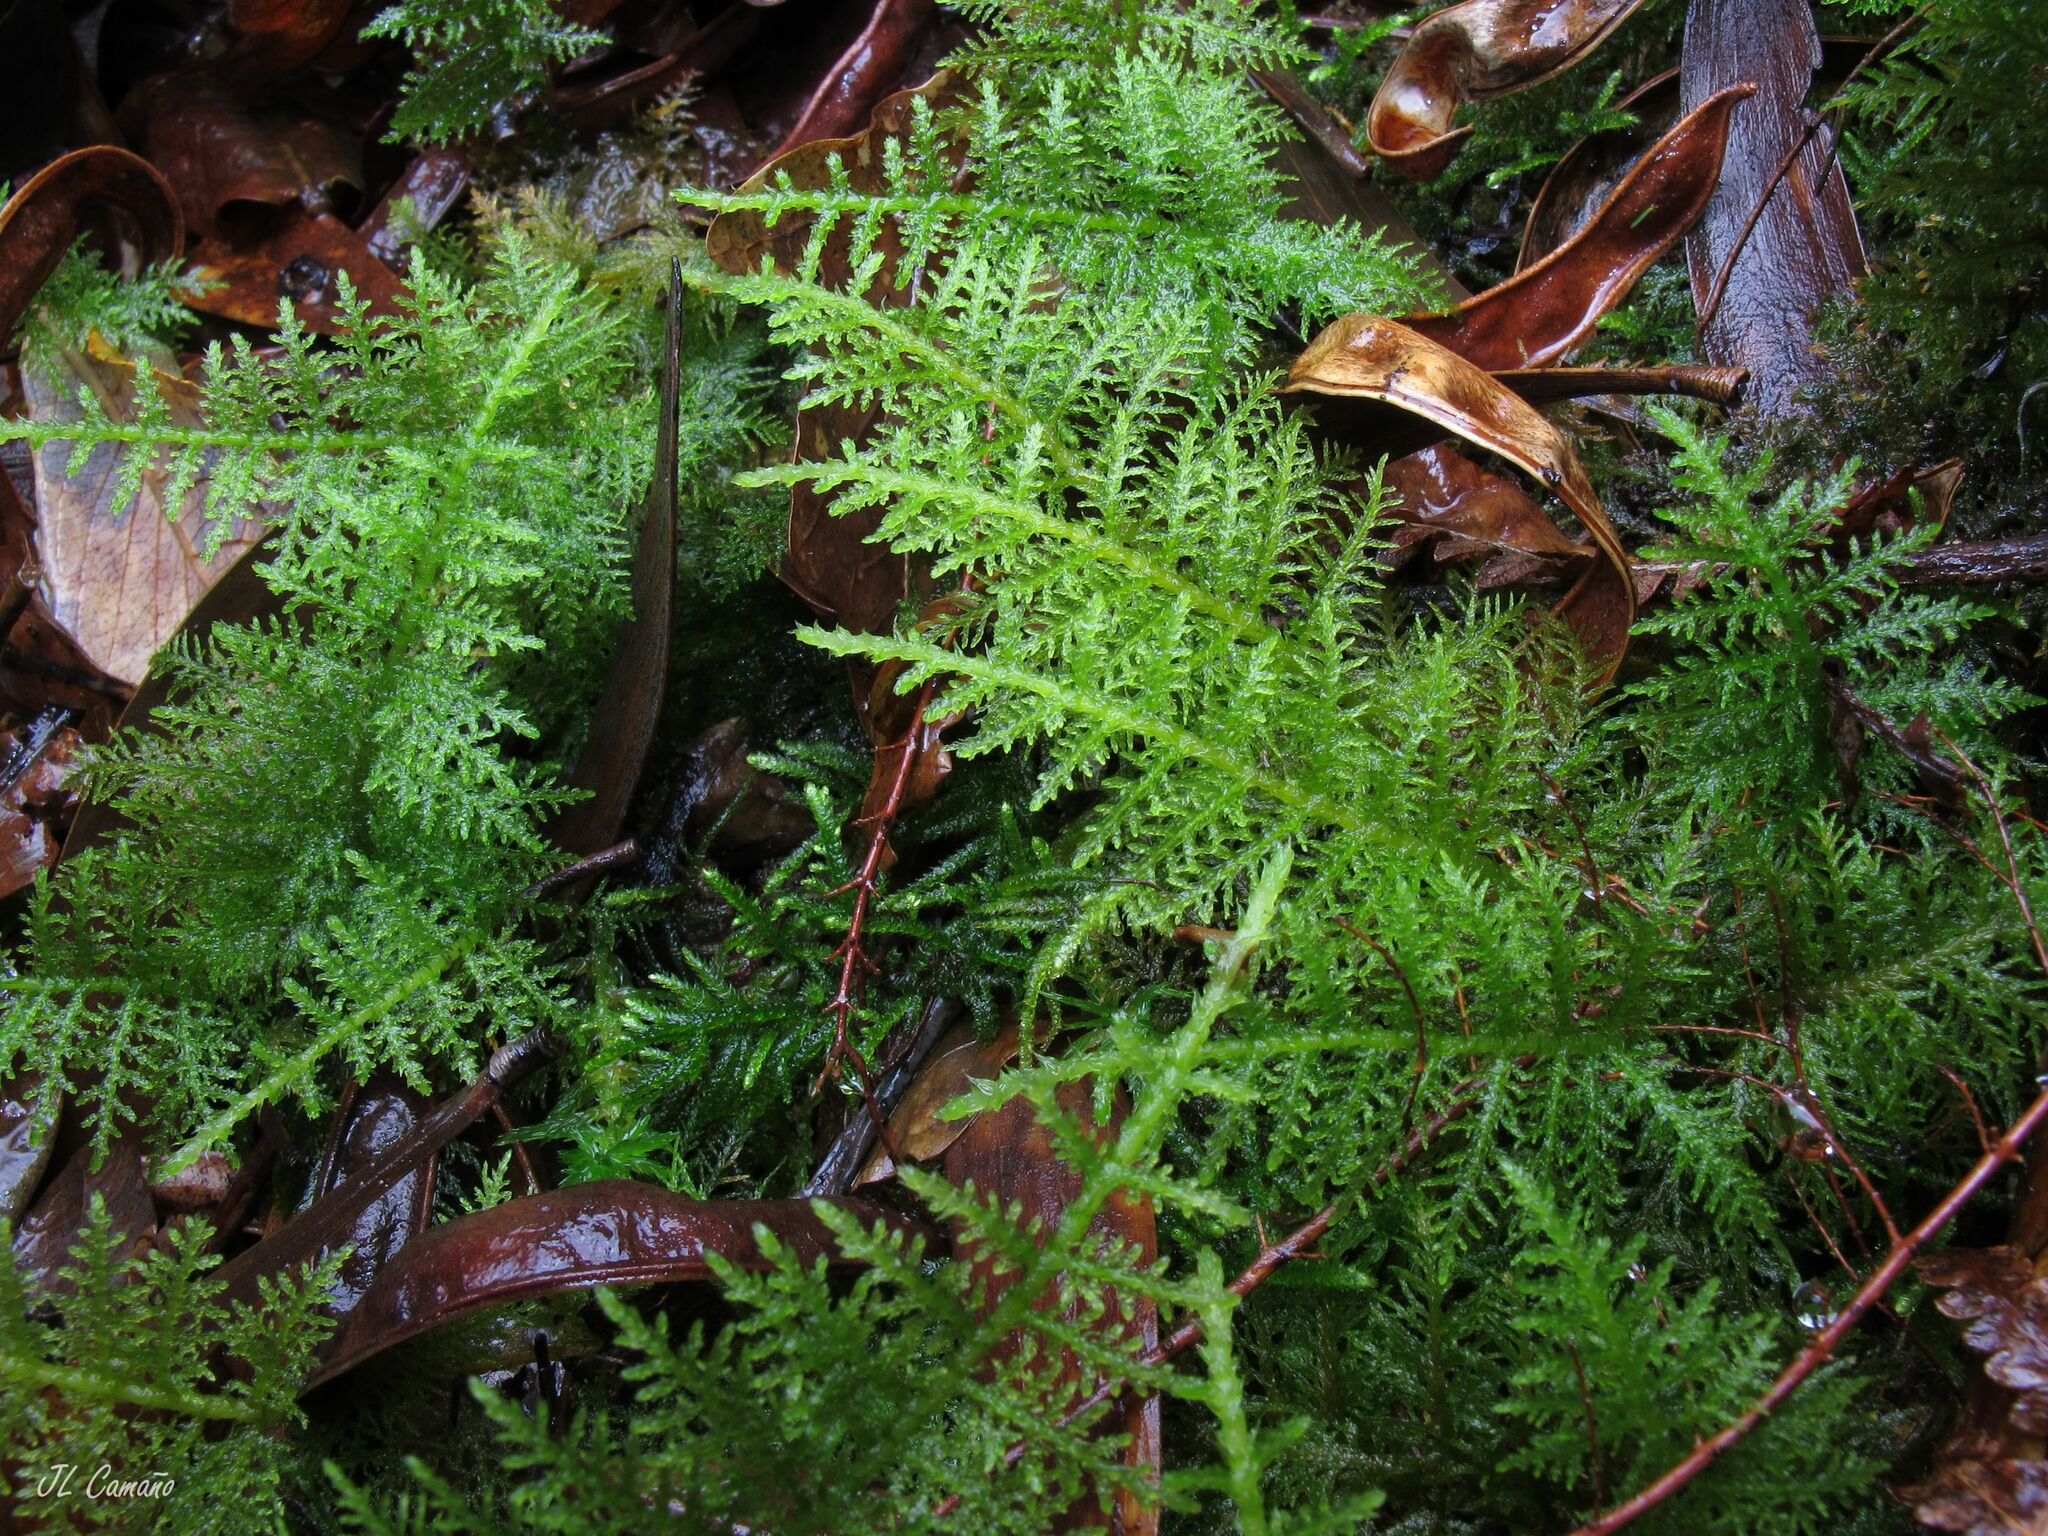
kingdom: Plantae
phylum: Bryophyta
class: Bryopsida
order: Hypnales
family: Thuidiaceae
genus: Thuidium
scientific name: Thuidium tamariscinum
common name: Common tamarisk-moss
